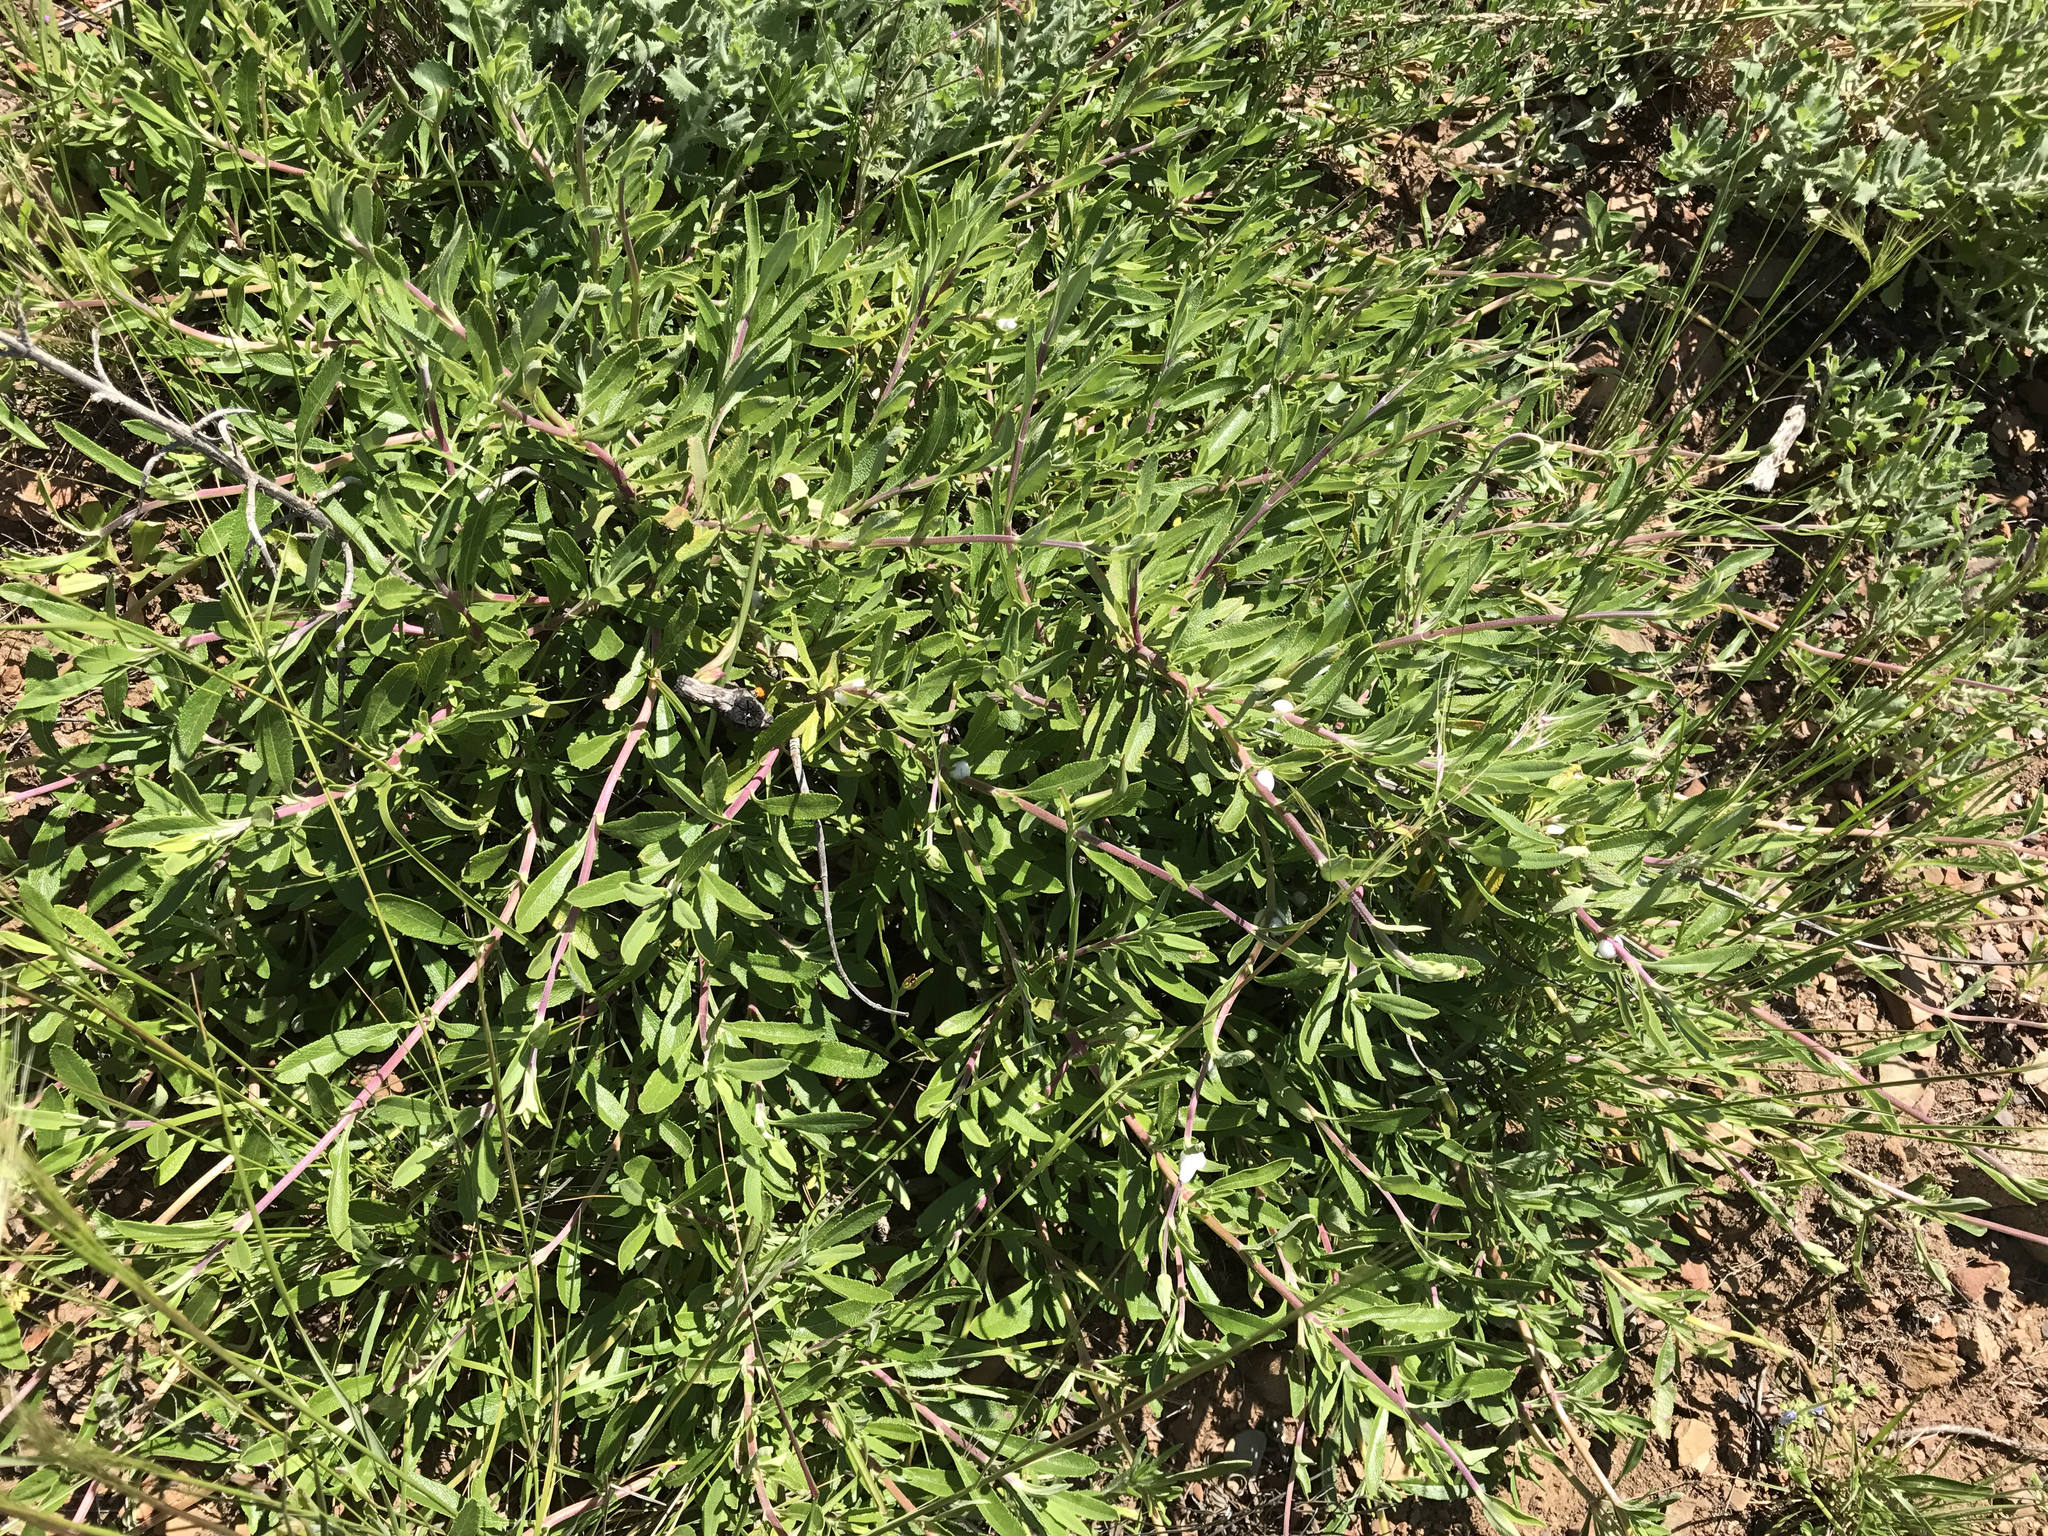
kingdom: Plantae
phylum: Tracheophyta
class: Magnoliopsida
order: Lamiales
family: Lamiaceae
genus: Salvia
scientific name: Salvia mellifera
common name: Black sage
